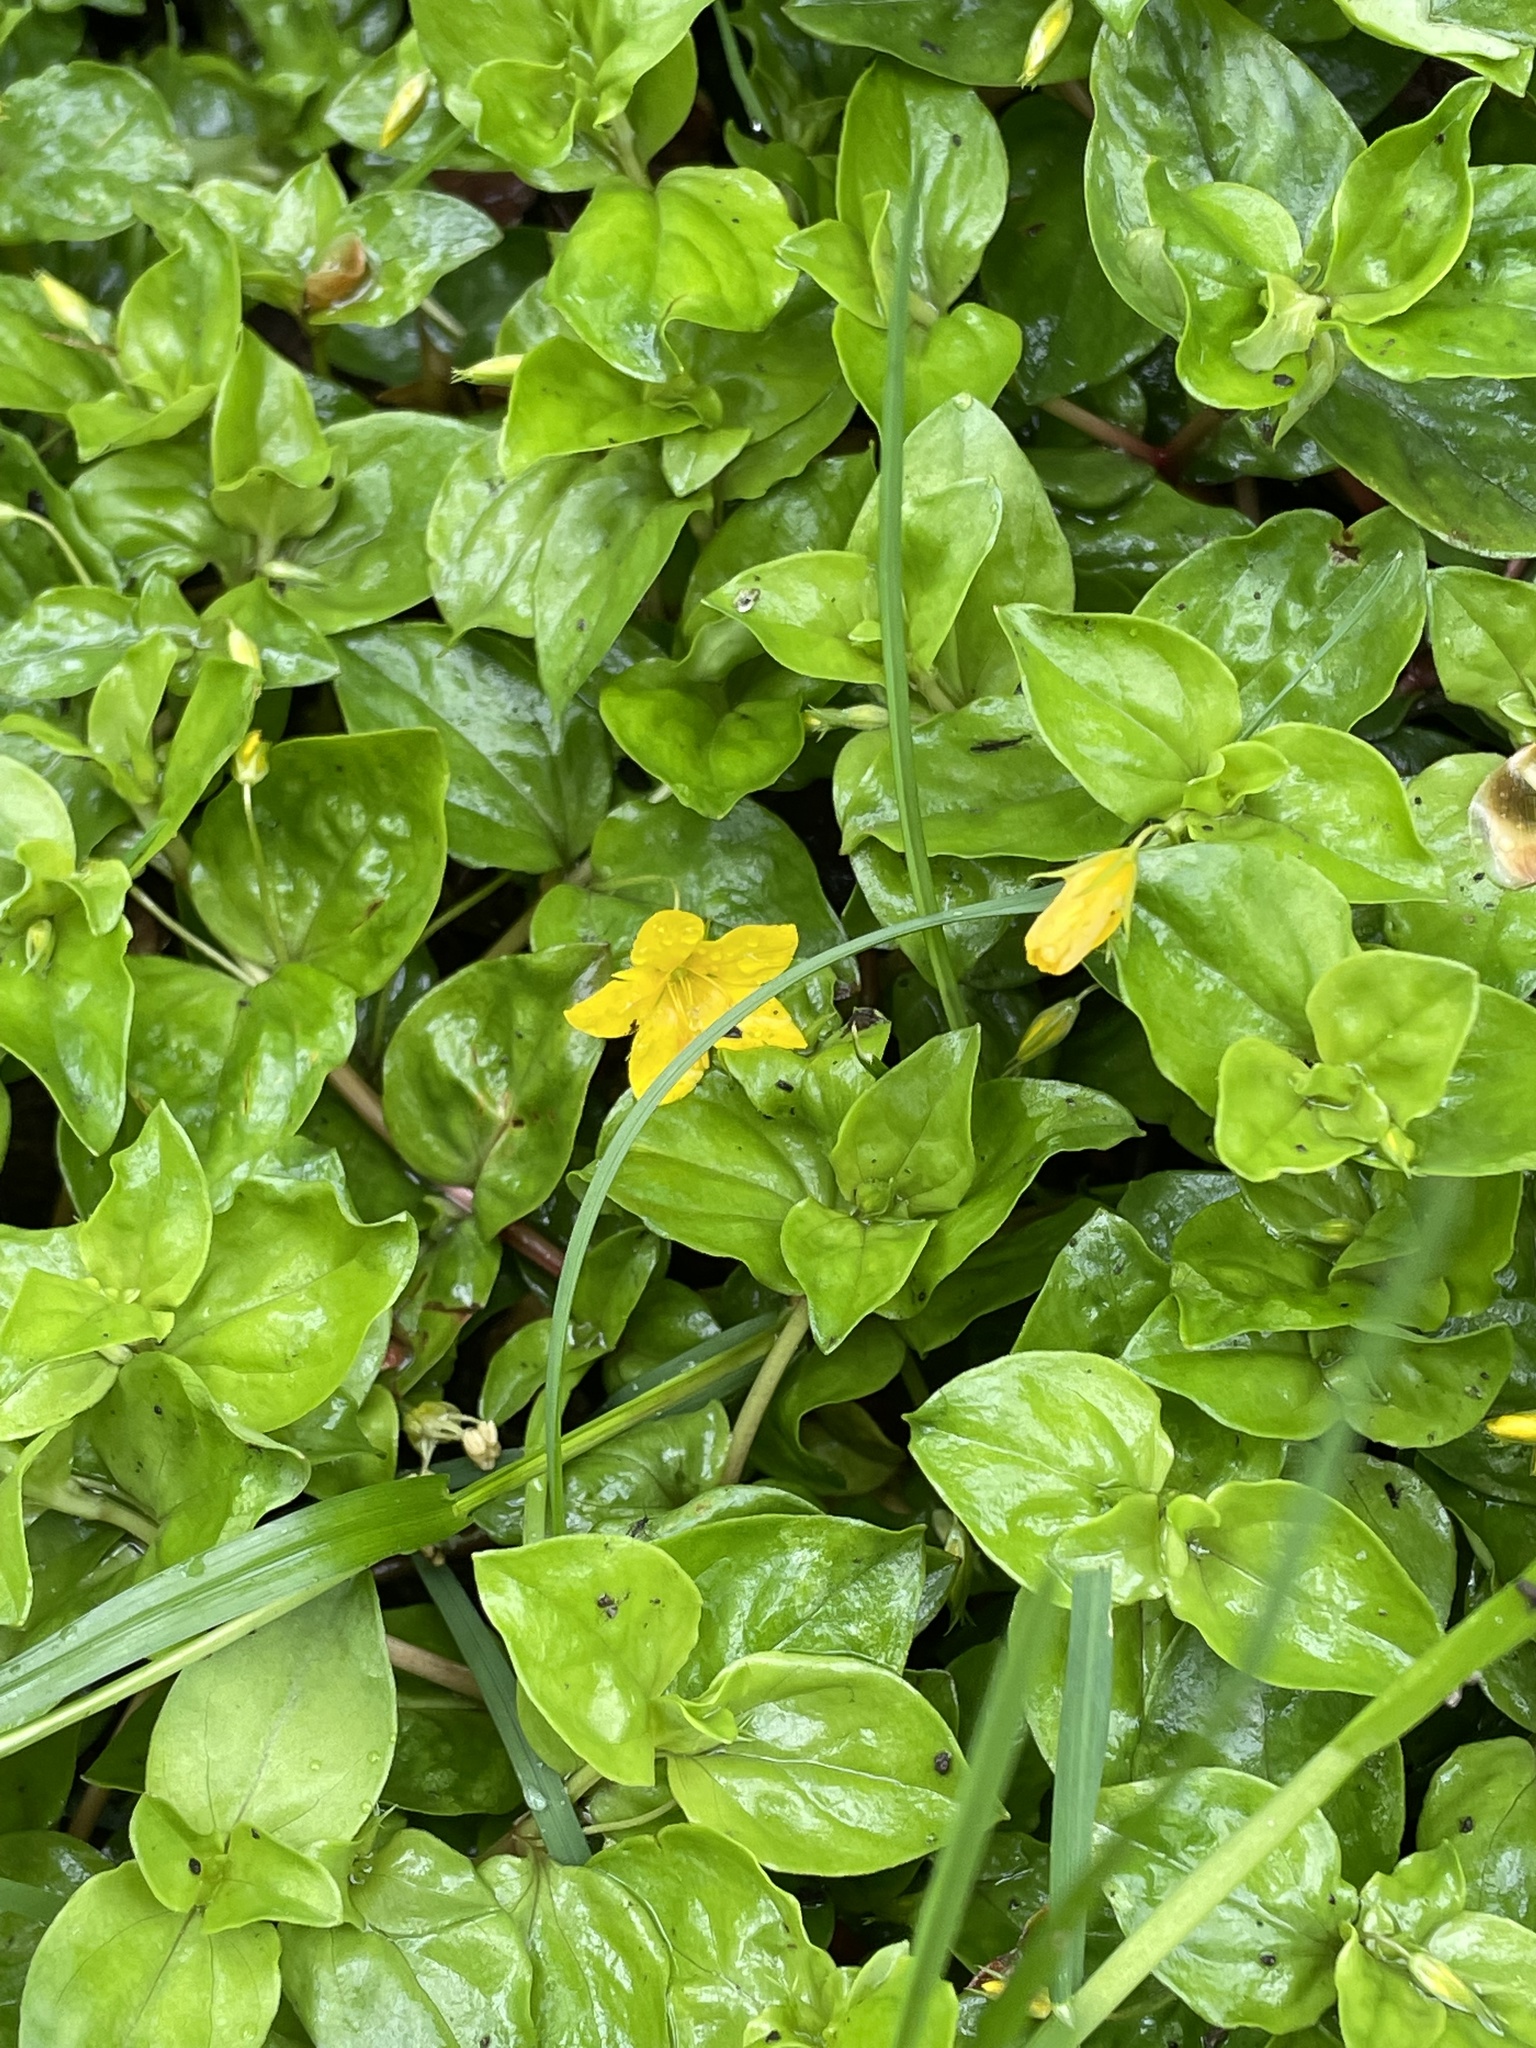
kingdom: Plantae
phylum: Tracheophyta
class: Magnoliopsida
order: Ericales
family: Primulaceae
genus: Lysimachia
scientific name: Lysimachia nemorum
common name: Yellow pimpernel
